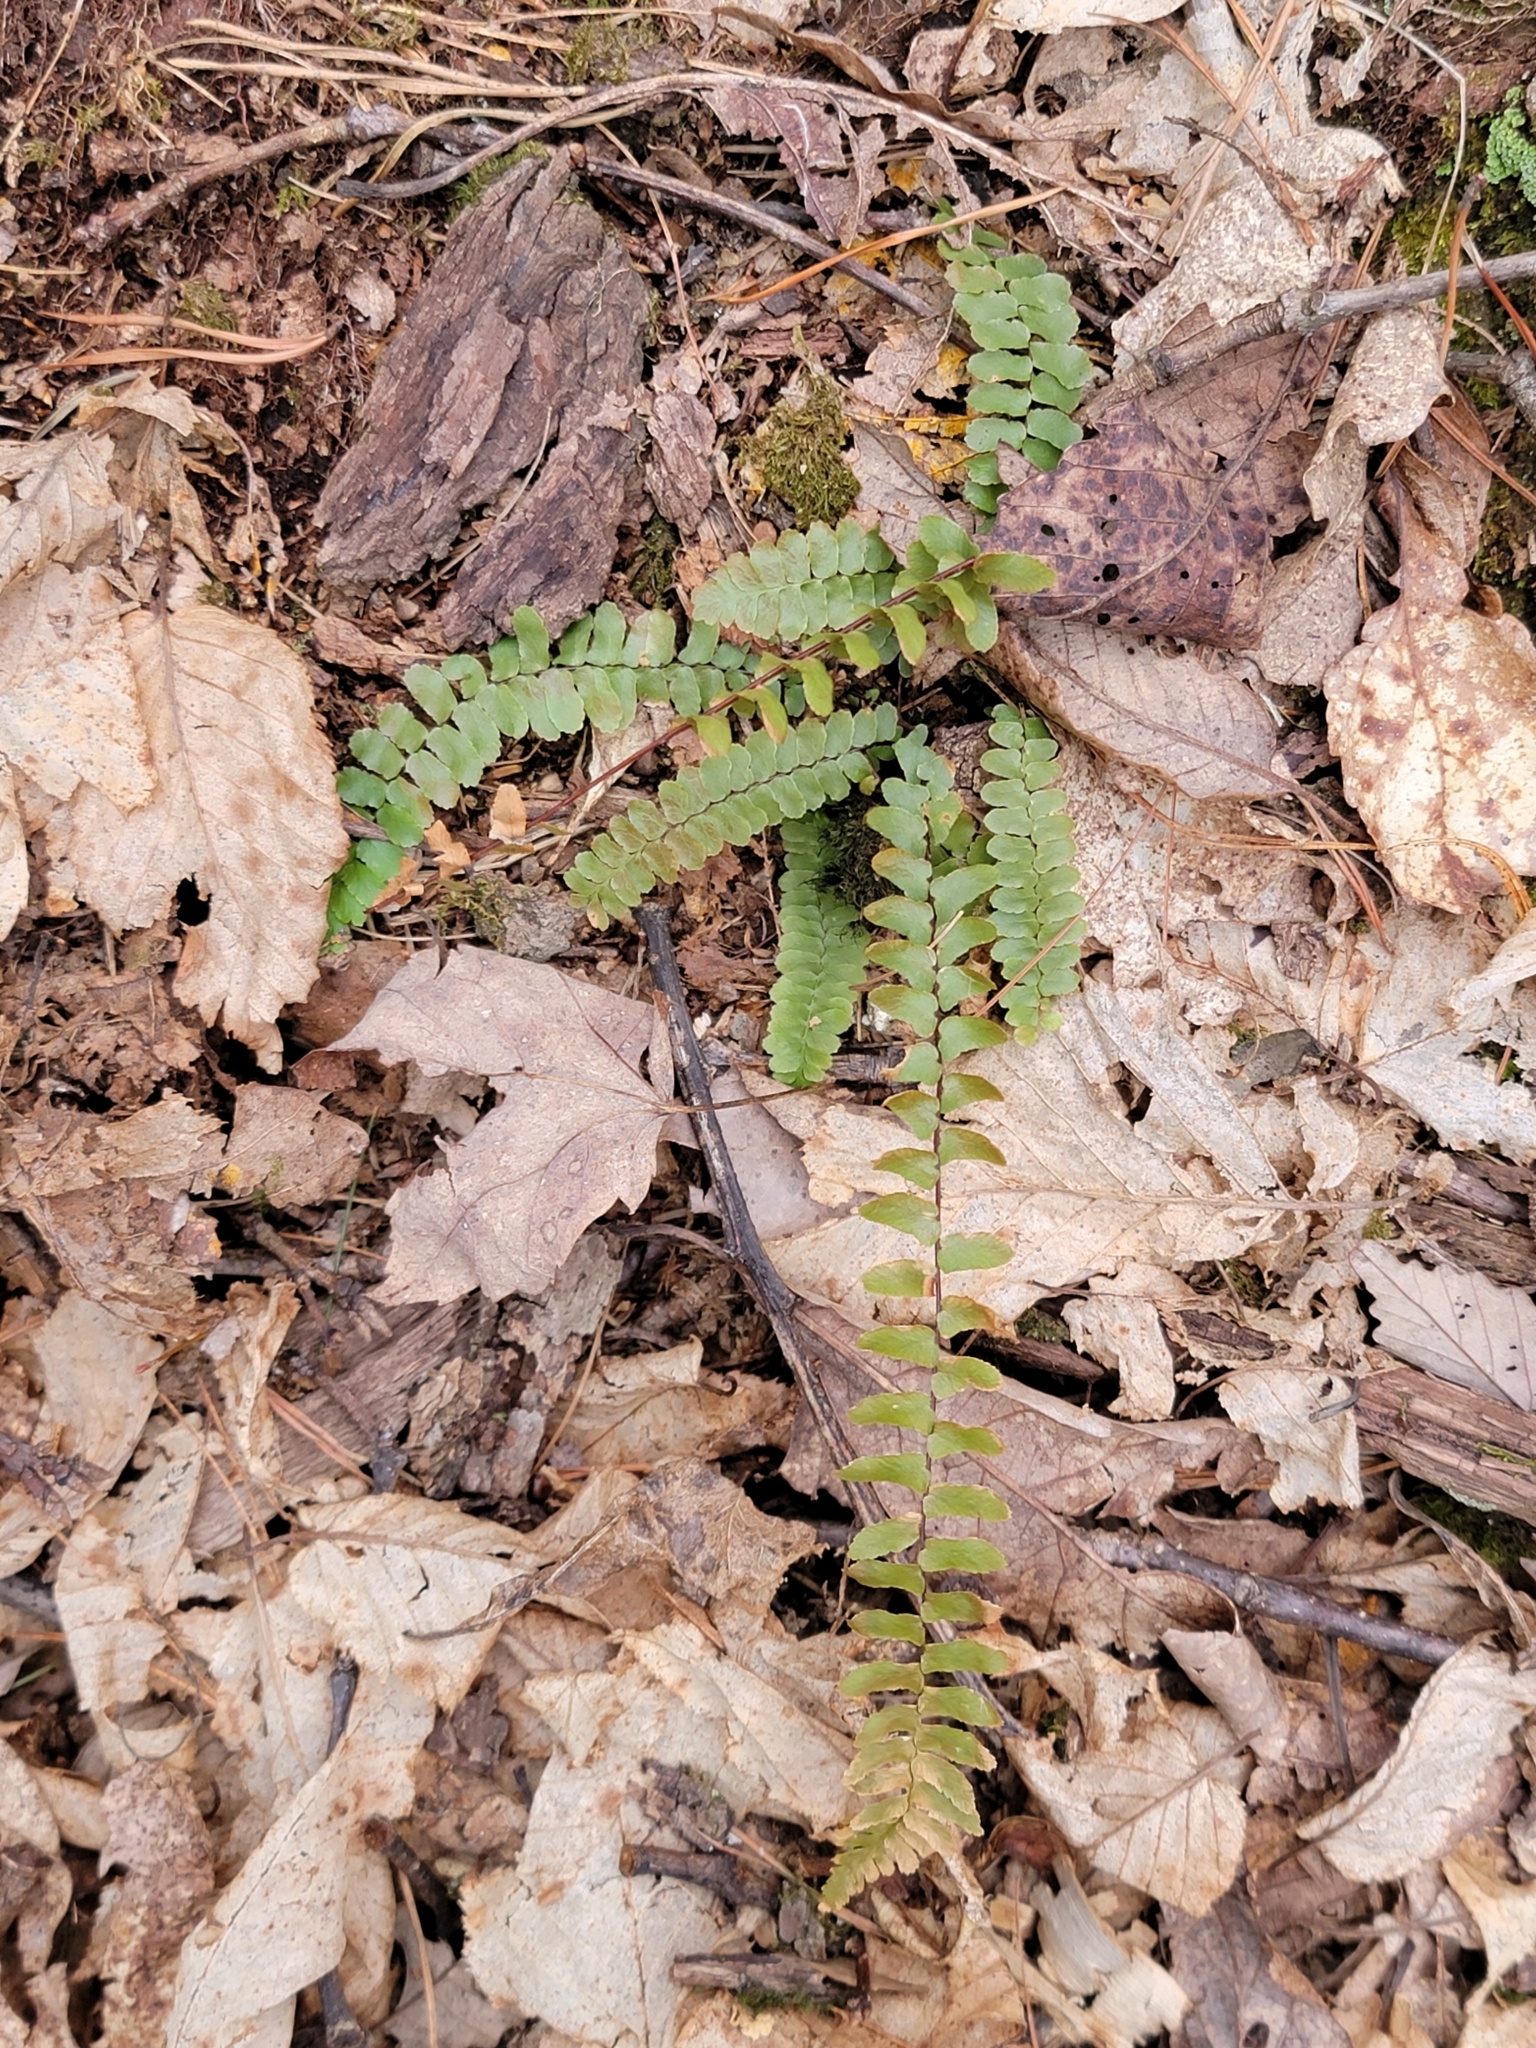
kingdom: Plantae
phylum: Tracheophyta
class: Polypodiopsida
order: Polypodiales
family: Aspleniaceae
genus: Asplenium
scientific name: Asplenium platyneuron
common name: Ebony spleenwort
